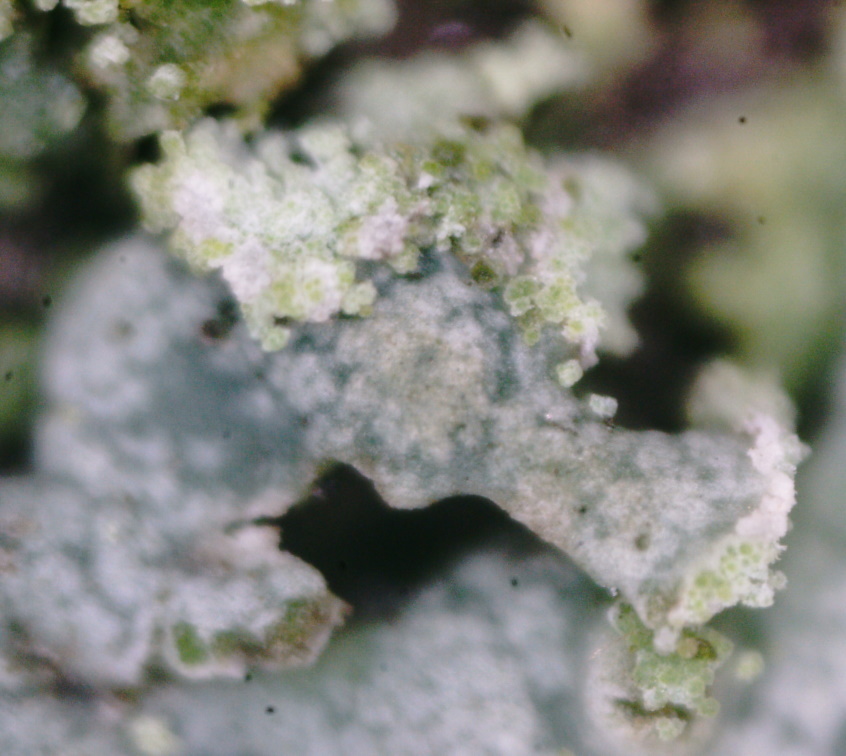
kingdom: Fungi
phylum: Ascomycota
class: Lecanoromycetes
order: Caliciales
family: Physciaceae
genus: Physcia
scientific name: Physcia dubia
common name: Powder-tipped rosette lichen
